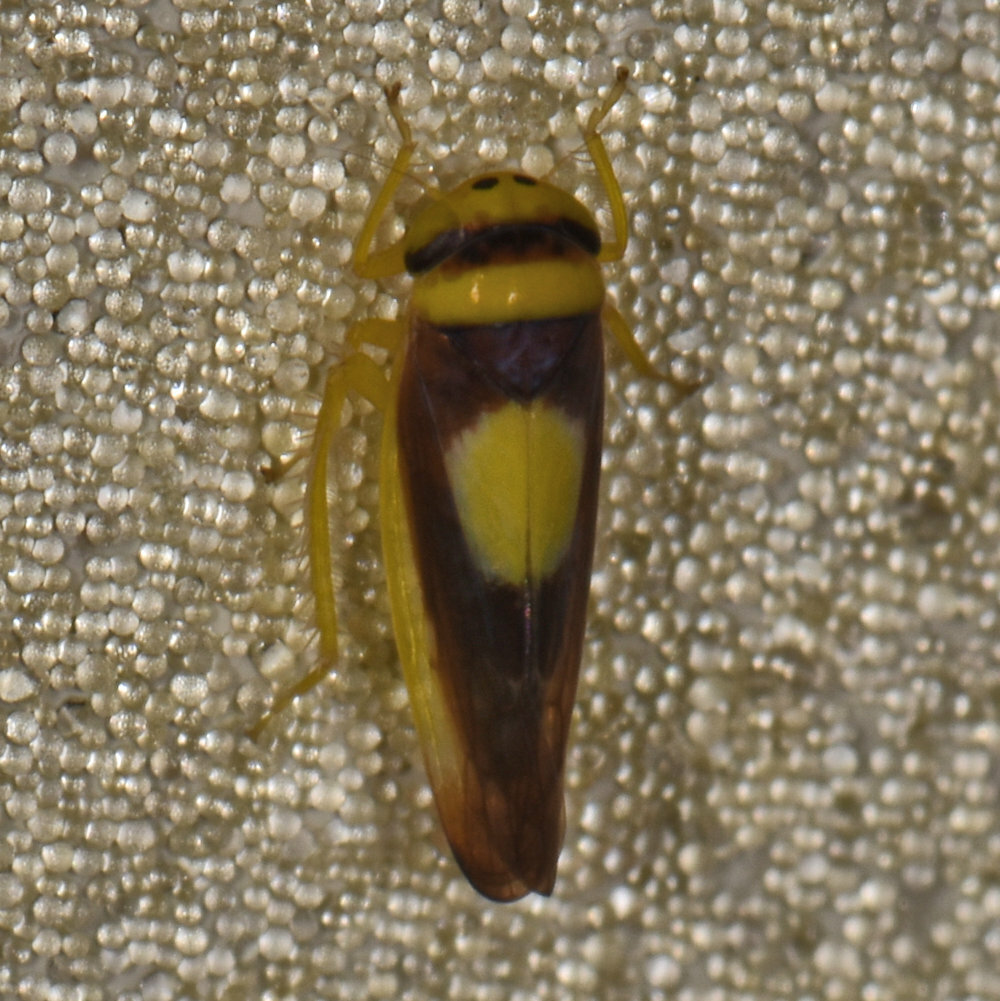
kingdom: Animalia
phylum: Arthropoda
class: Insecta
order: Hemiptera
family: Cicadellidae
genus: Colladonus
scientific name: Colladonus clitellarius
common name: The saddleback leafhopper
